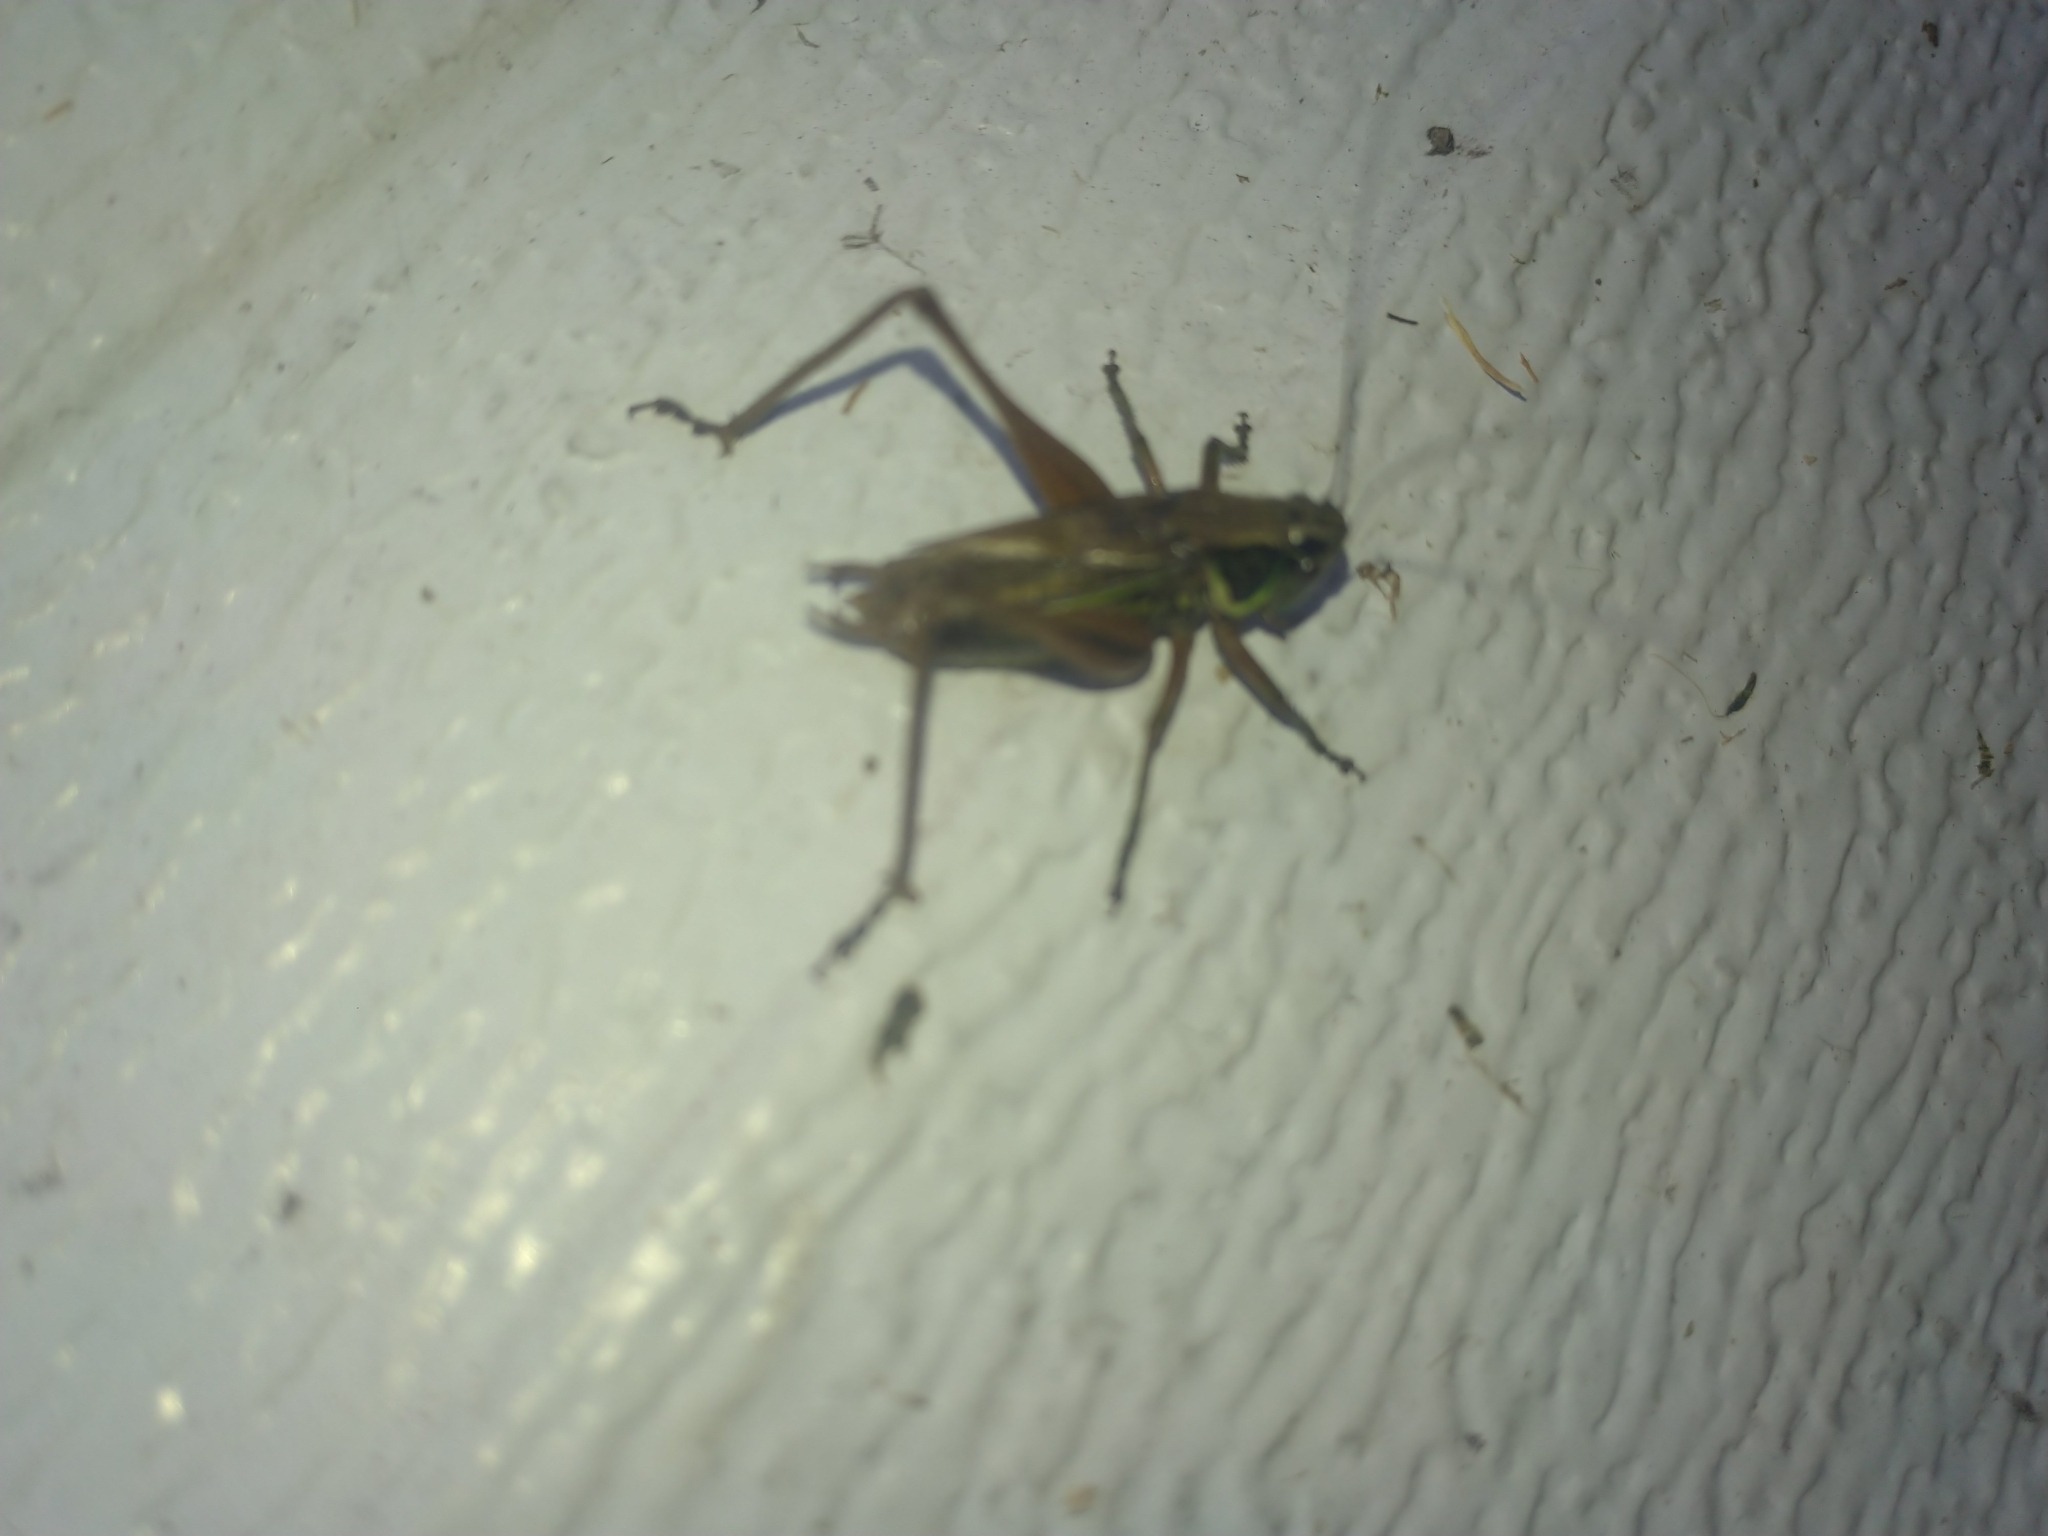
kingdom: Animalia
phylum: Arthropoda
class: Insecta
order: Orthoptera
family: Tettigoniidae
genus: Roeseliana
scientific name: Roeseliana roeselii
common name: Roesel's bush cricket
